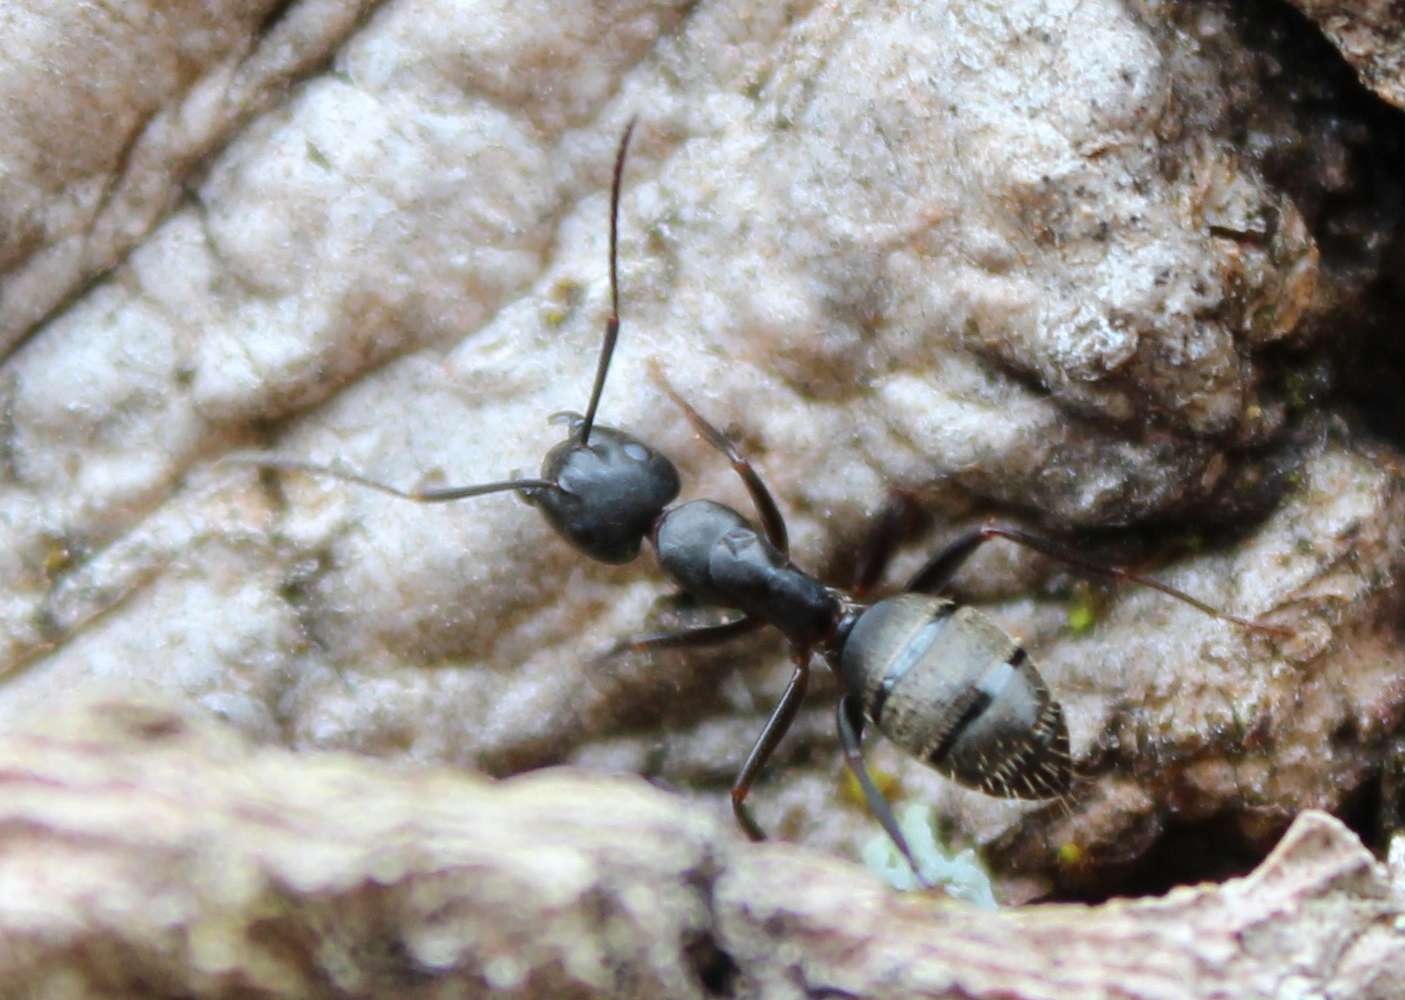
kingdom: Animalia
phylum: Arthropoda
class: Insecta
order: Hymenoptera
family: Formicidae
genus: Camponotus
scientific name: Camponotus pennsylvanicus
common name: Black carpenter ant
